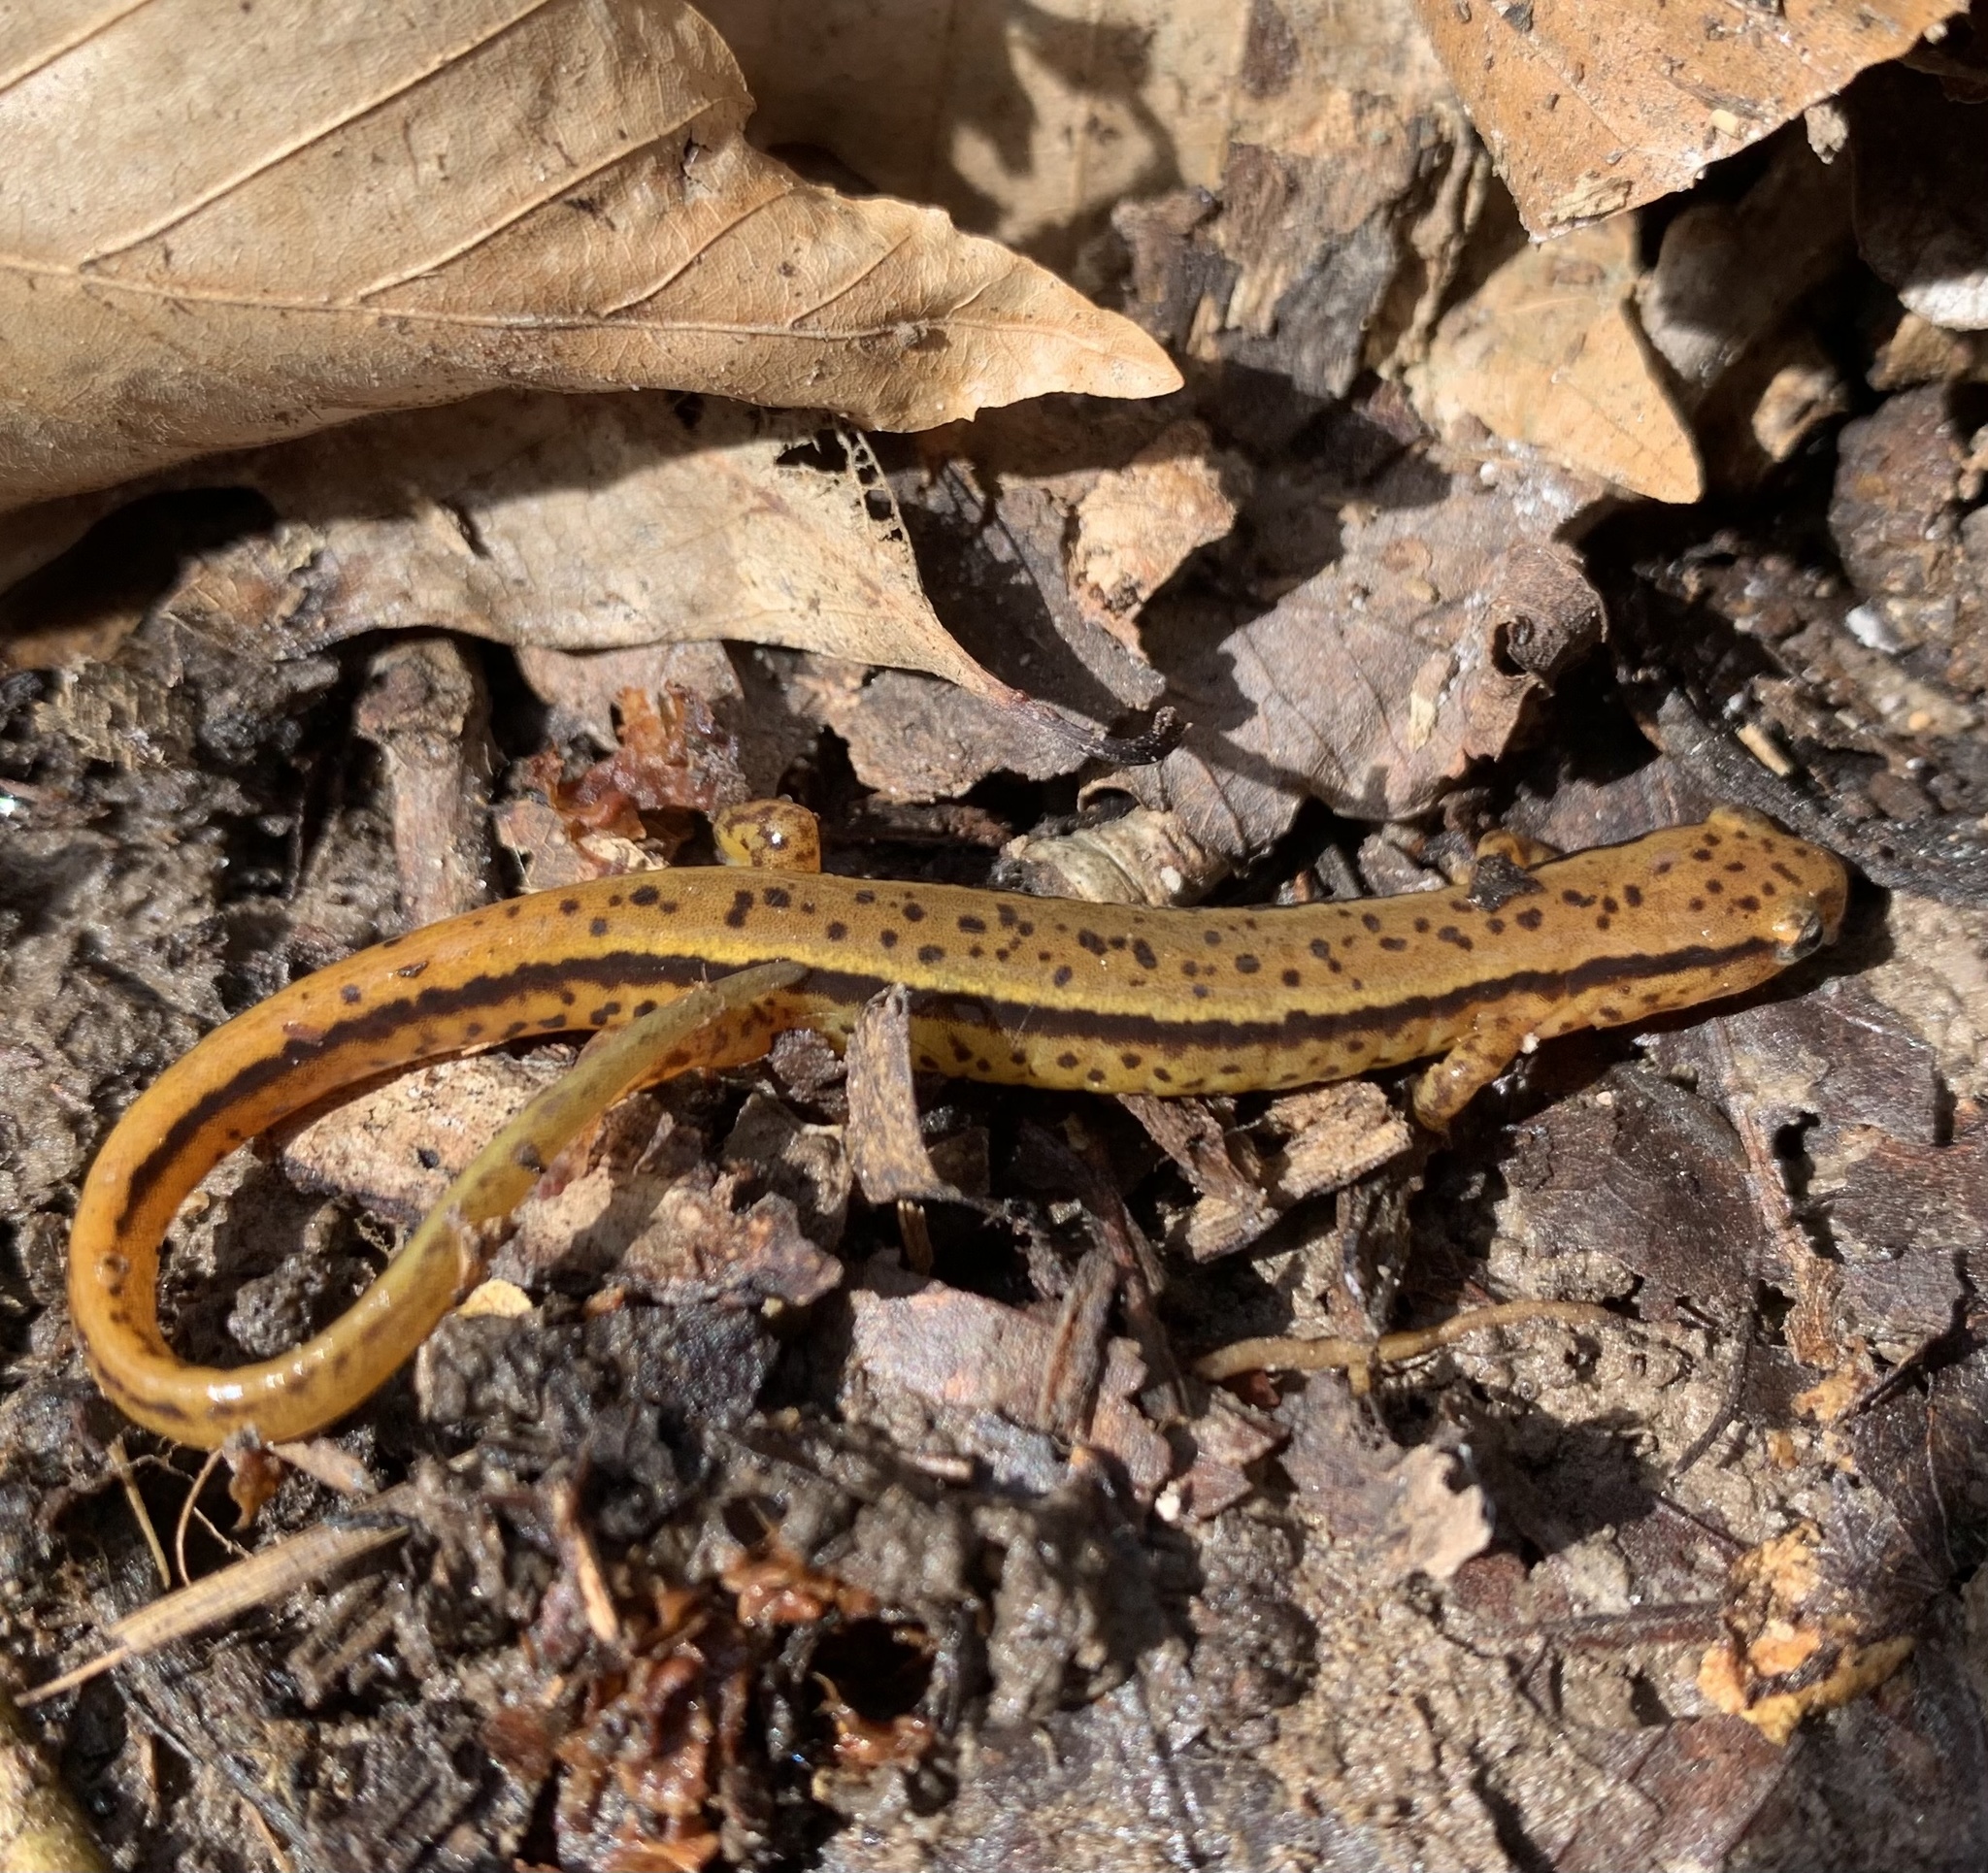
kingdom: Animalia
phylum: Chordata
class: Amphibia
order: Caudata
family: Plethodontidae
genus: Eurycea
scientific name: Eurycea cirrigera
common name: Southern two-lined salamander
